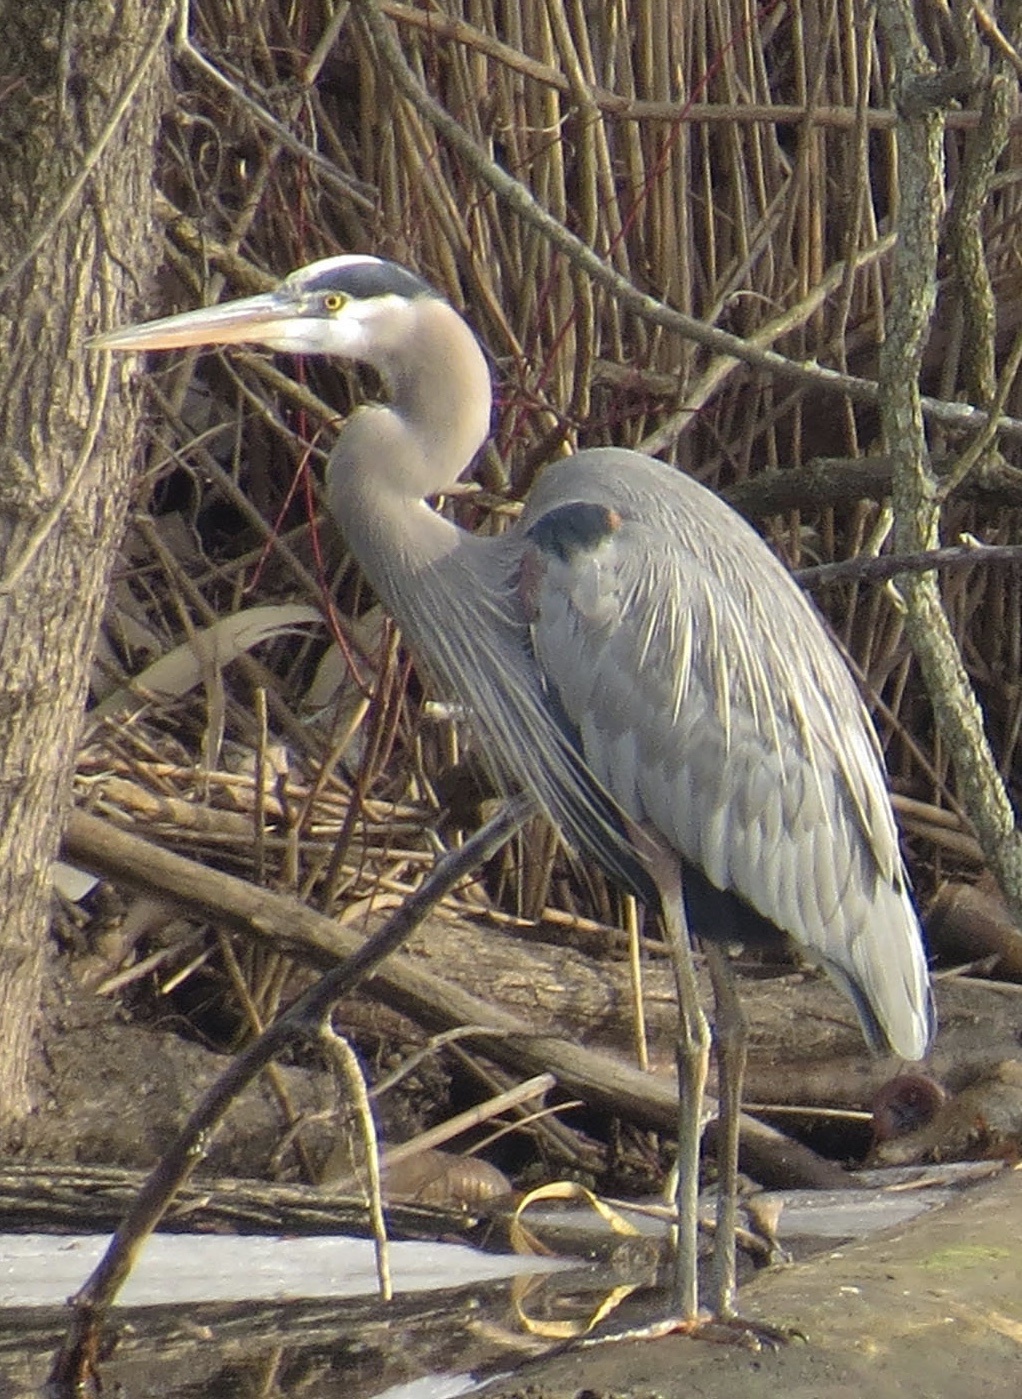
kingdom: Animalia
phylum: Chordata
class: Aves
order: Pelecaniformes
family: Ardeidae
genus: Ardea
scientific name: Ardea herodias
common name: Great blue heron
